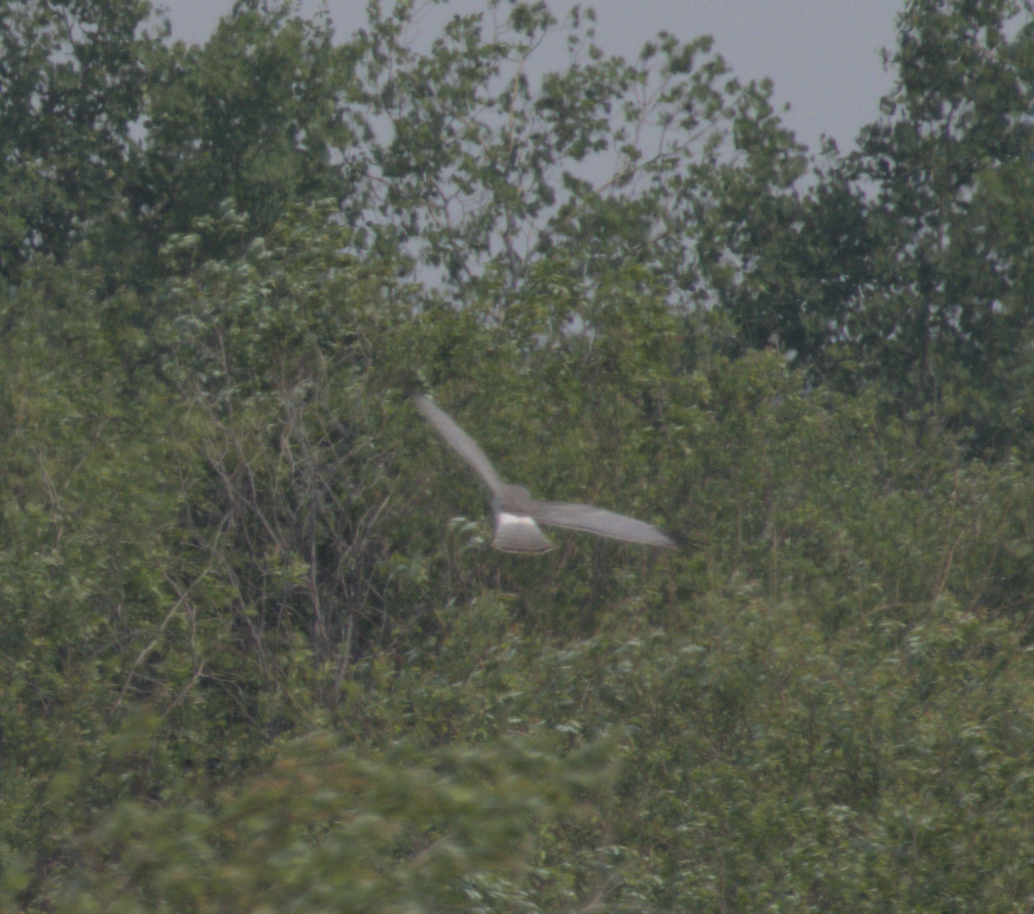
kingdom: Animalia
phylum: Chordata
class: Aves
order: Accipitriformes
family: Accipitridae
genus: Circus
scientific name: Circus cyaneus
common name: Hen harrier
